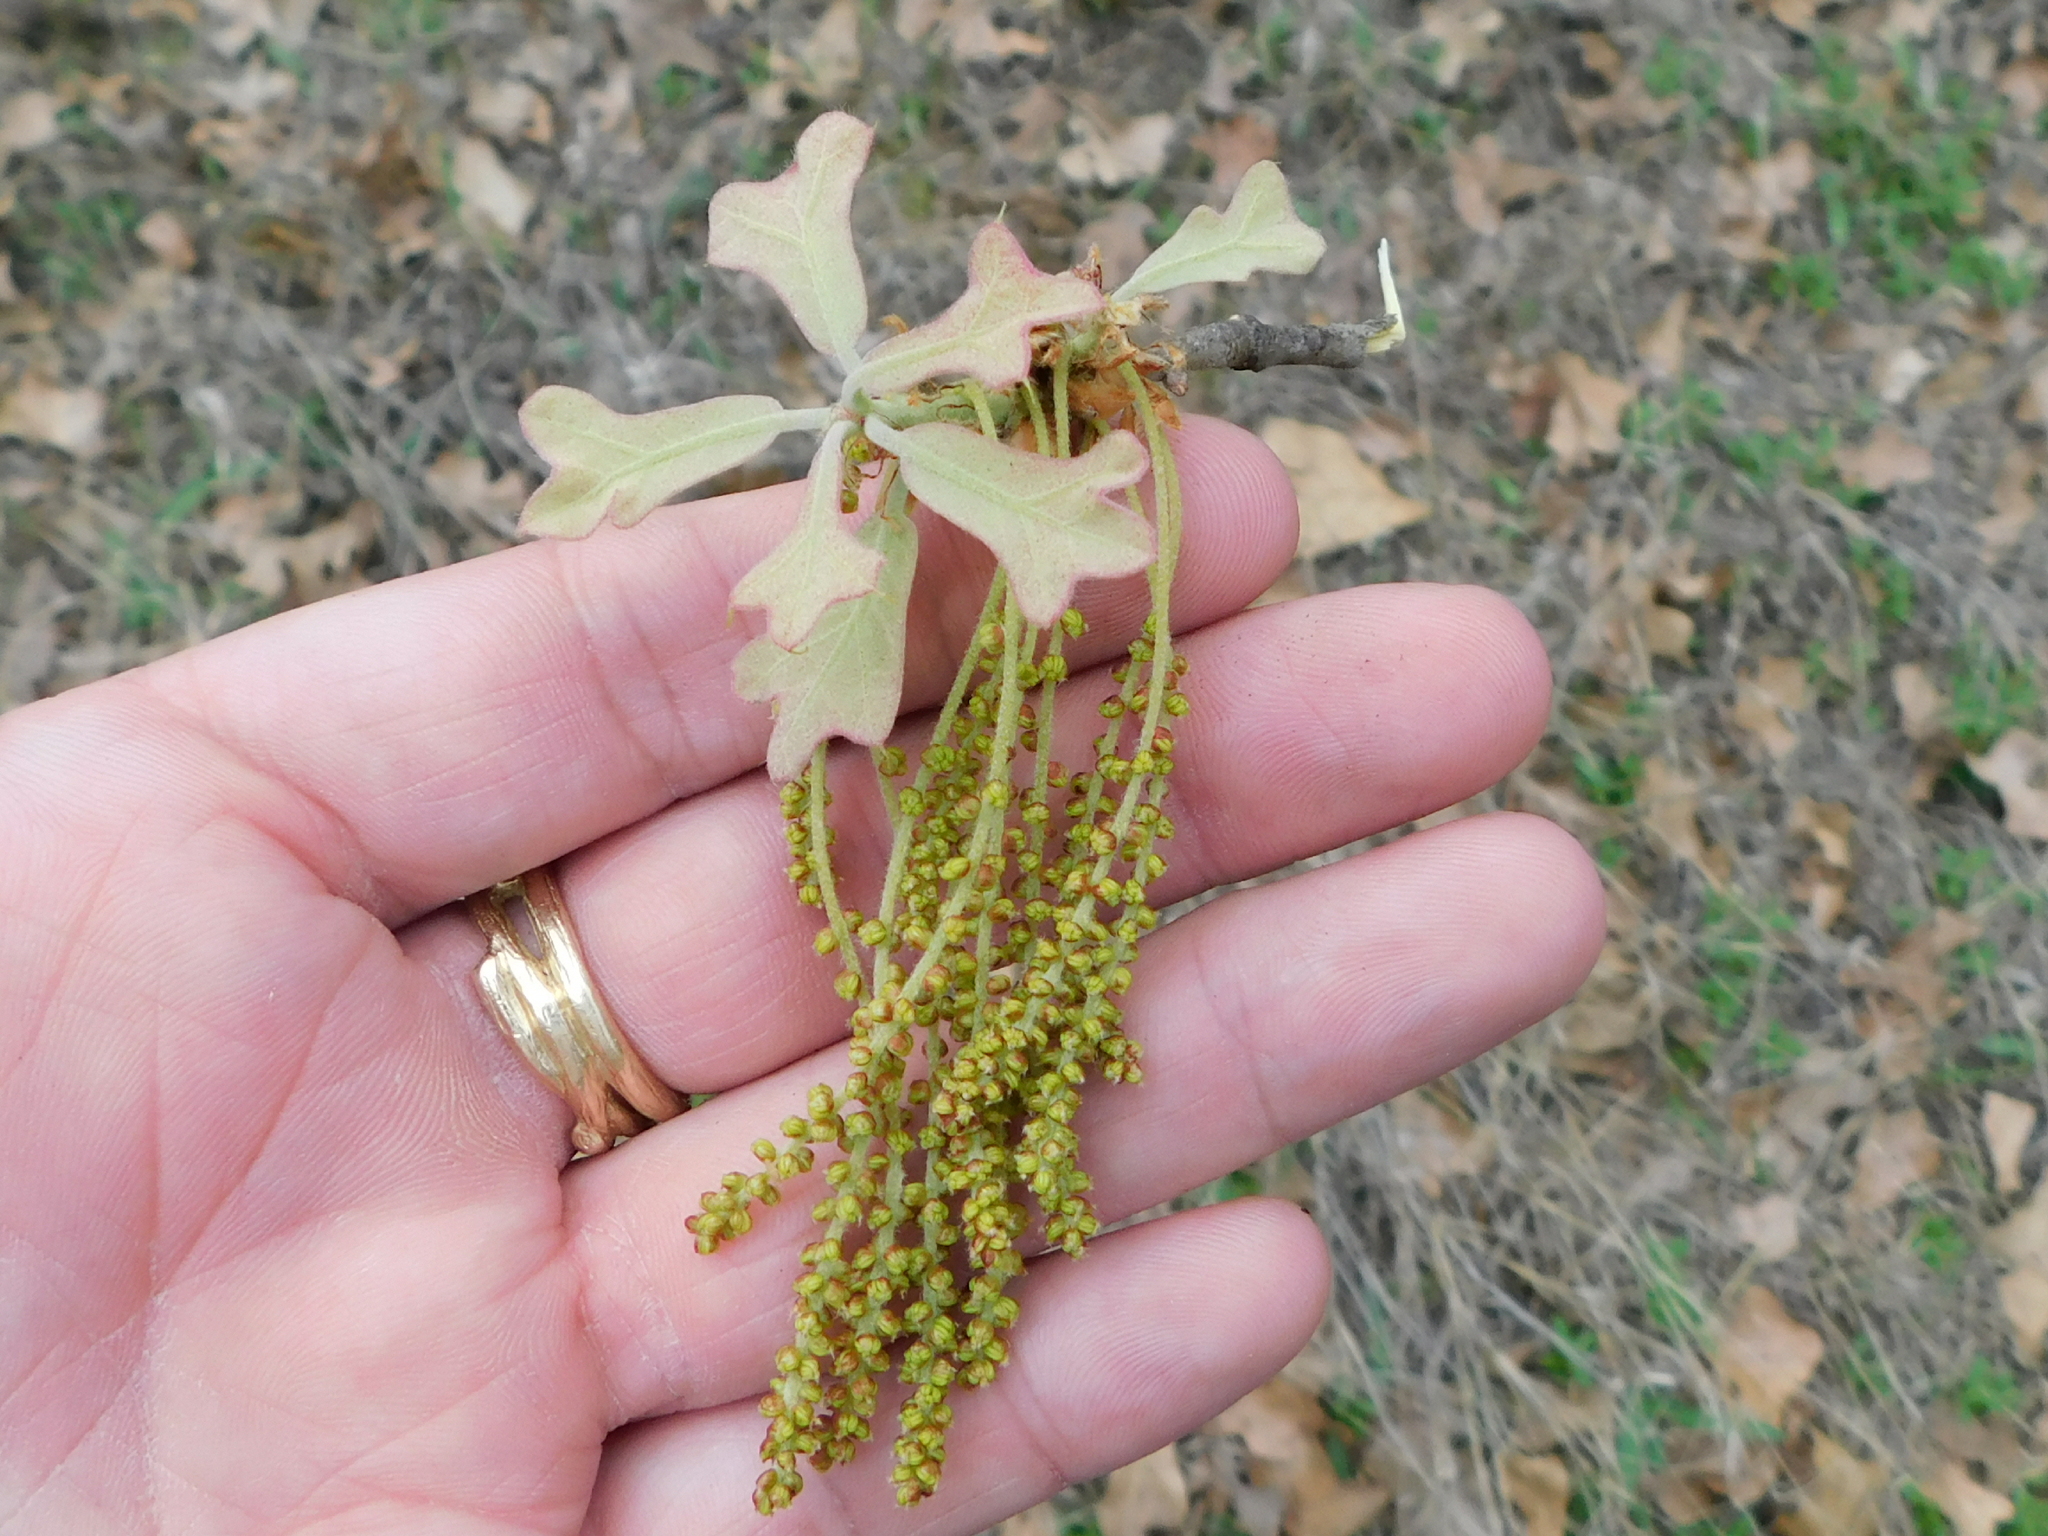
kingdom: Plantae
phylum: Tracheophyta
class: Magnoliopsida
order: Fagales
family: Fagaceae
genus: Quercus
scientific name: Quercus marilandica
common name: Blackjack oak
